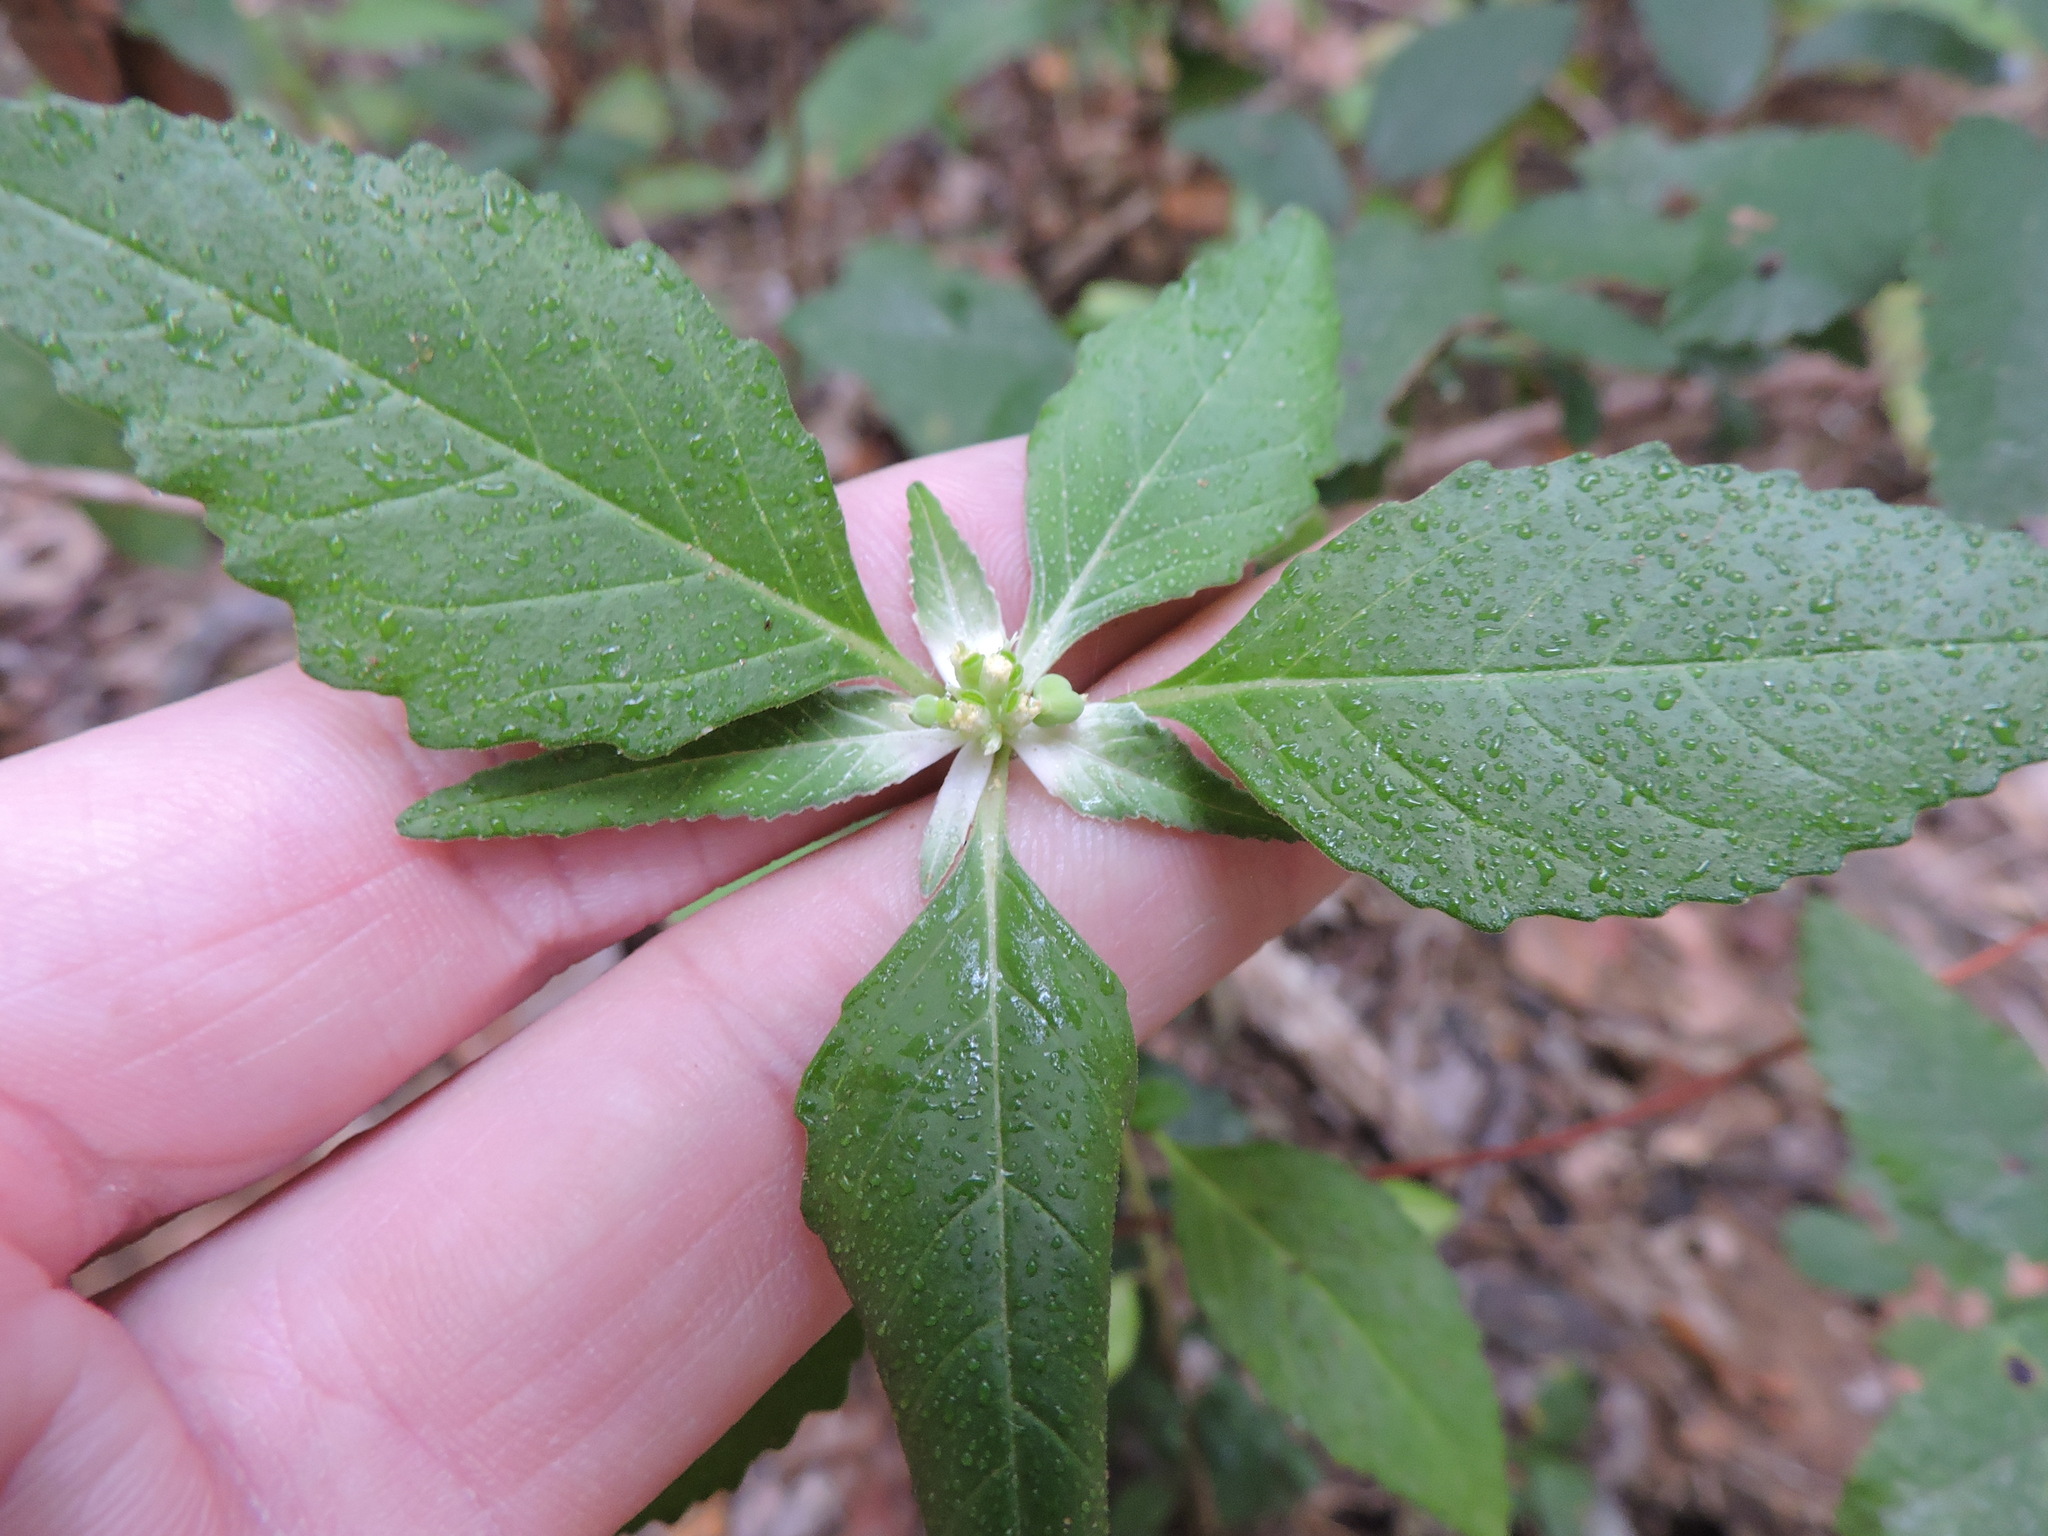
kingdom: Plantae
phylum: Tracheophyta
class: Magnoliopsida
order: Malpighiales
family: Euphorbiaceae
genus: Euphorbia
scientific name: Euphorbia dentata
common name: Dentate spurge
